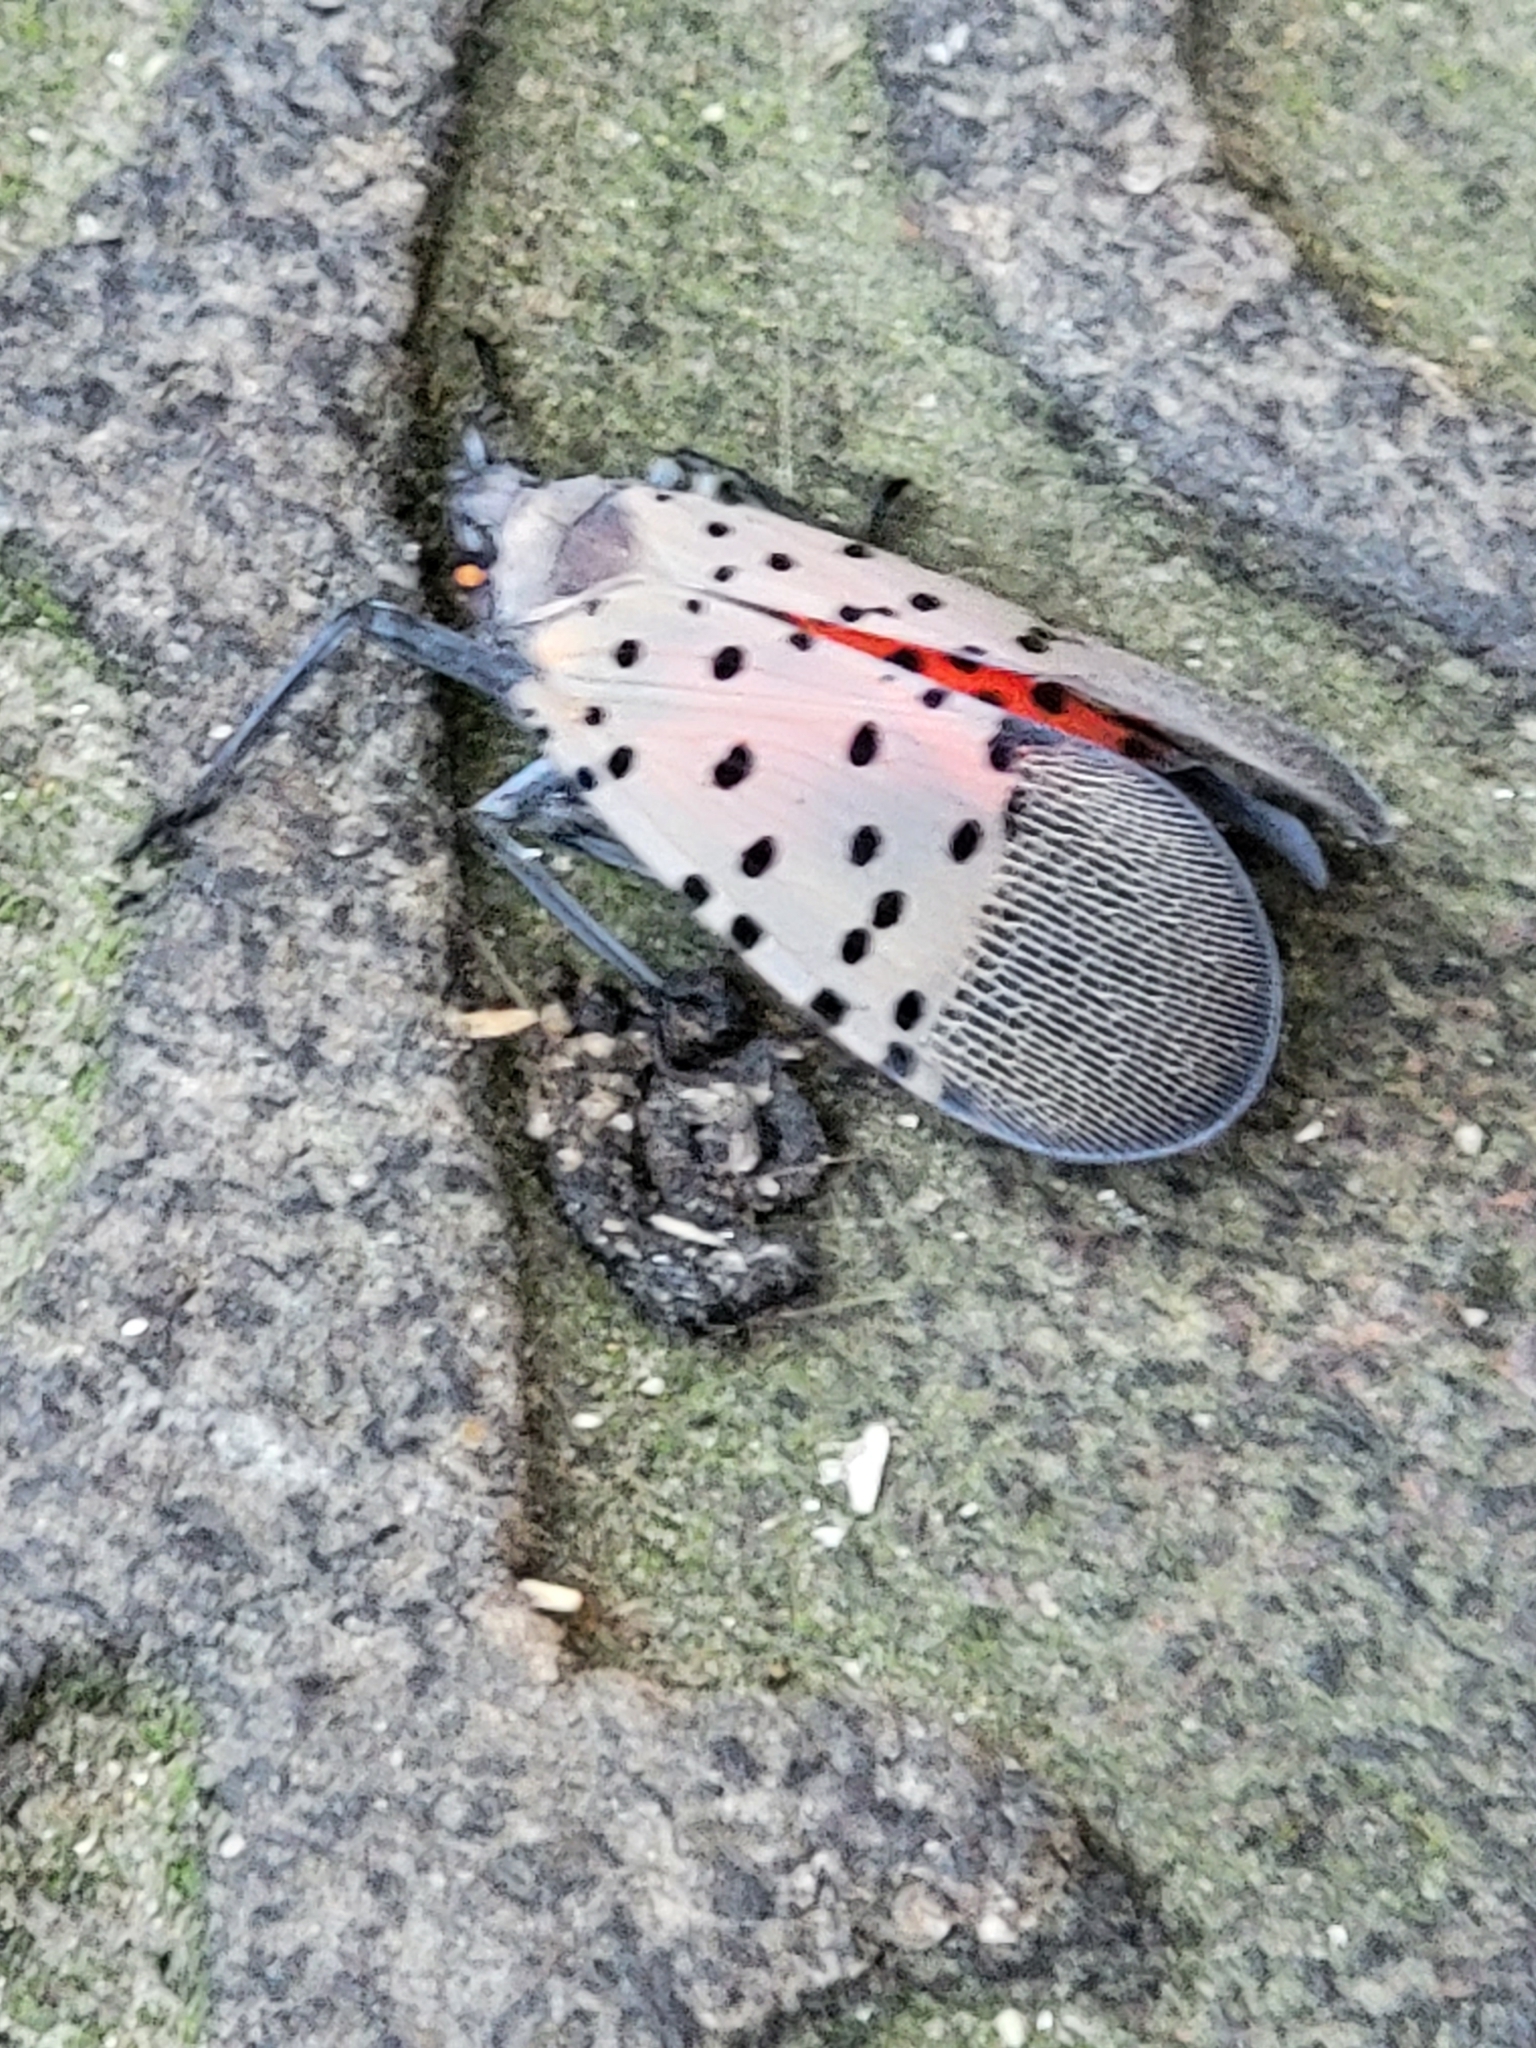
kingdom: Animalia
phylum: Arthropoda
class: Insecta
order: Hemiptera
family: Fulgoridae
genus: Lycorma
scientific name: Lycorma delicatula
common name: Spotted lanternfly
